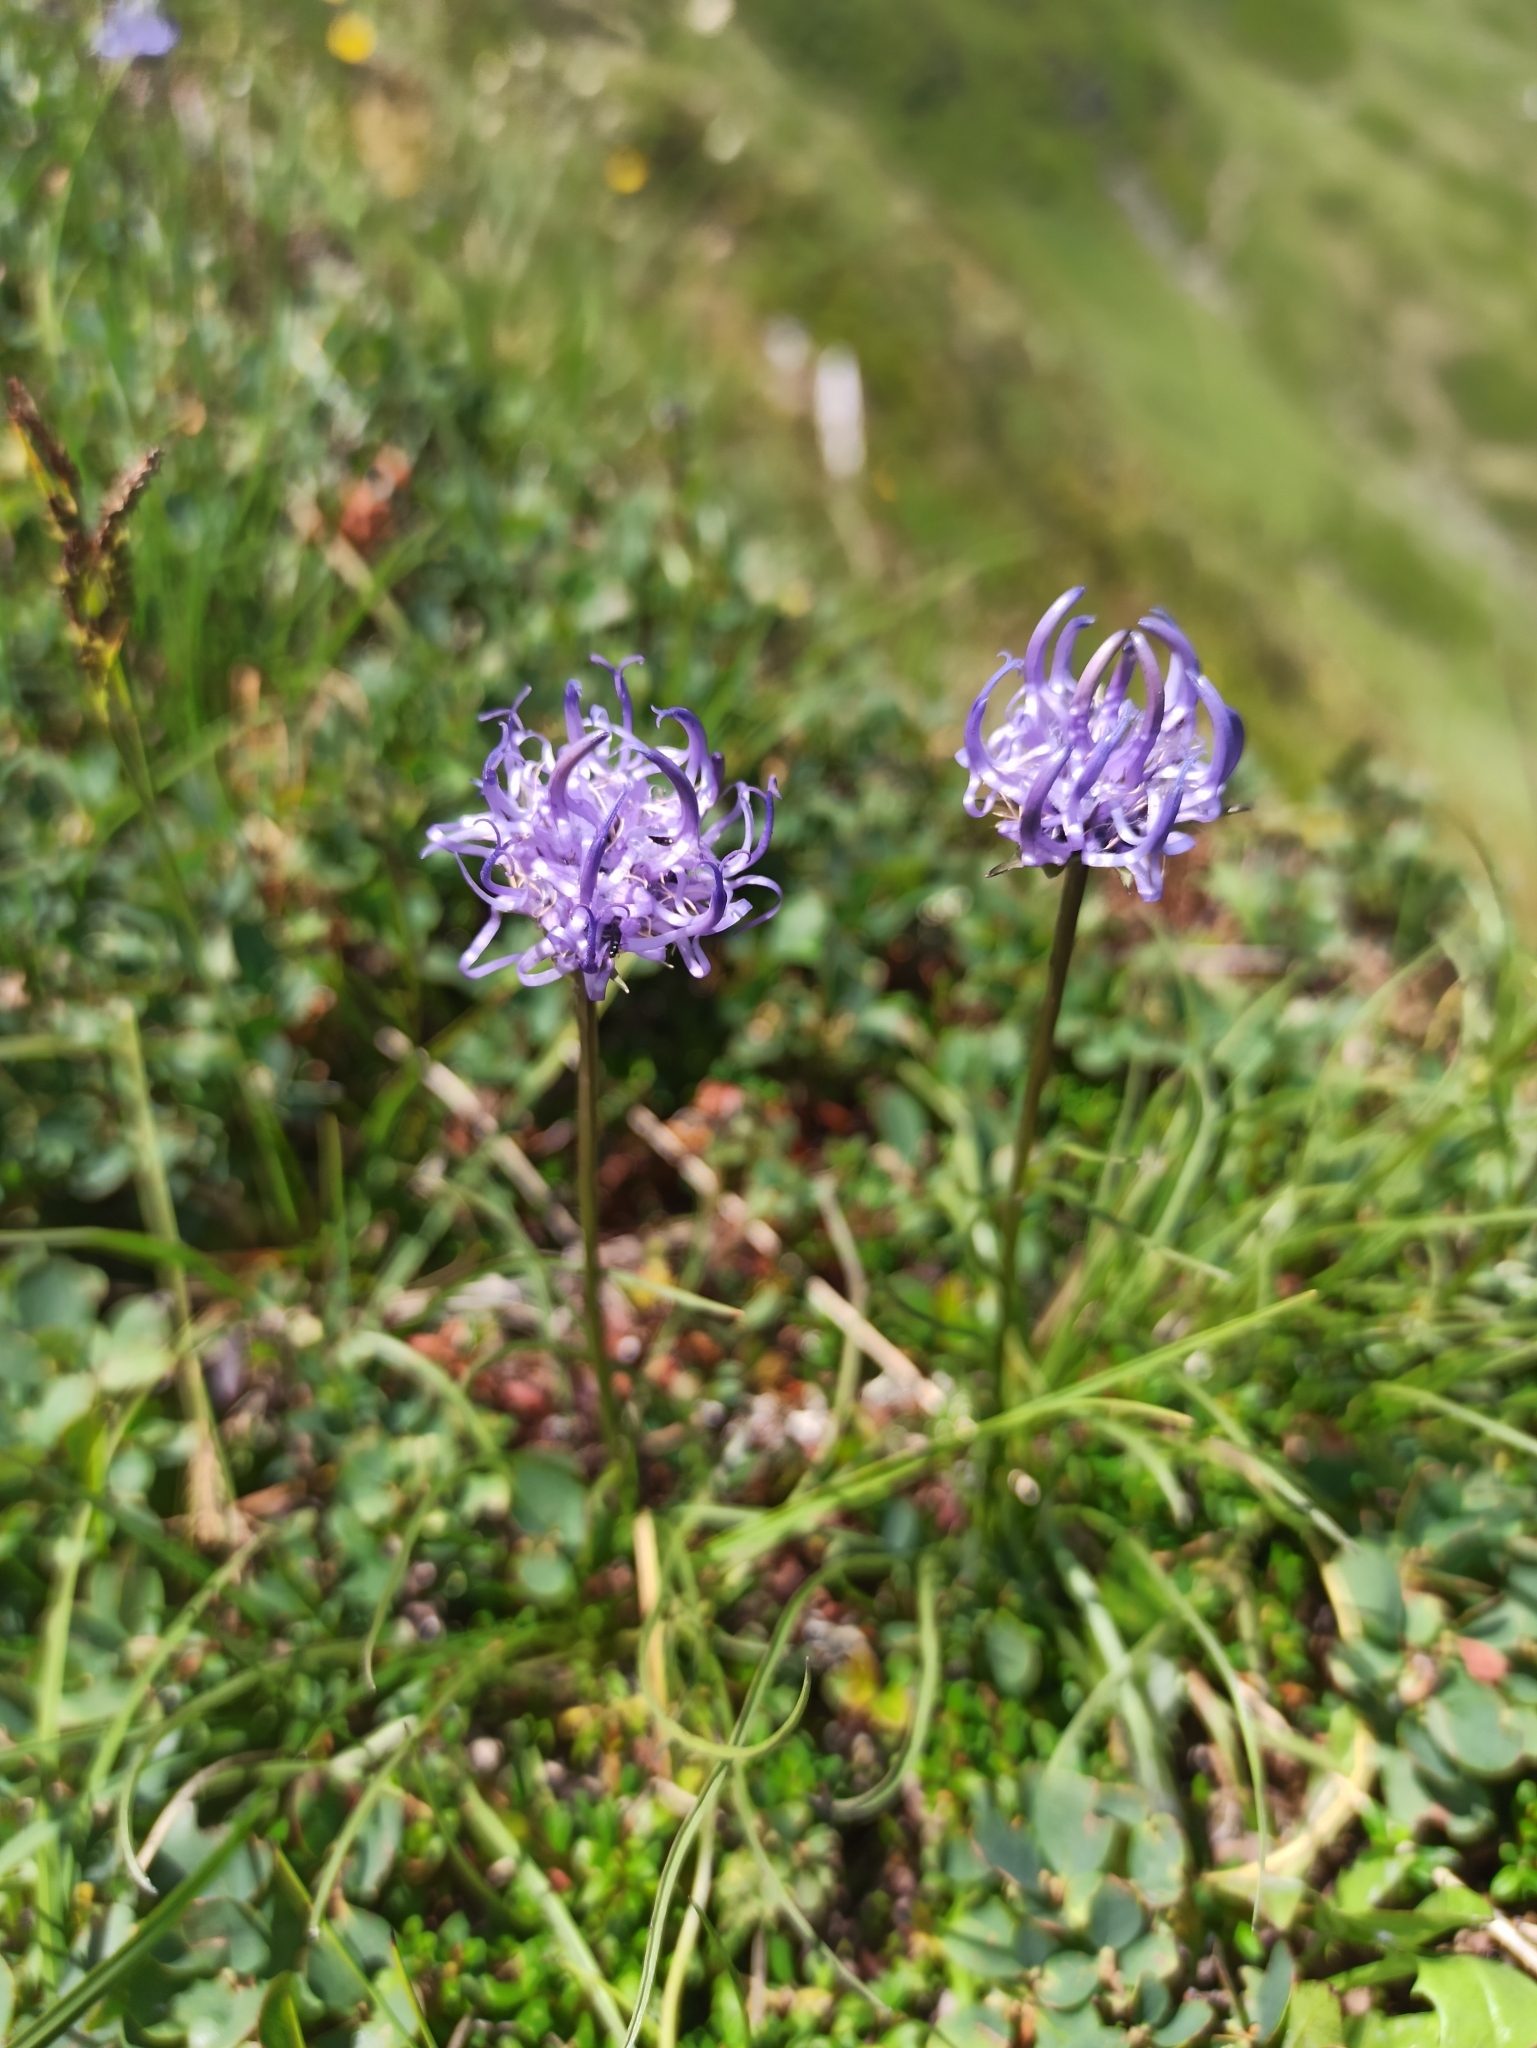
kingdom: Plantae
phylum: Tracheophyta
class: Magnoliopsida
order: Asterales
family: Campanulaceae
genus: Phyteuma
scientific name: Phyteuma hemisphaericum
